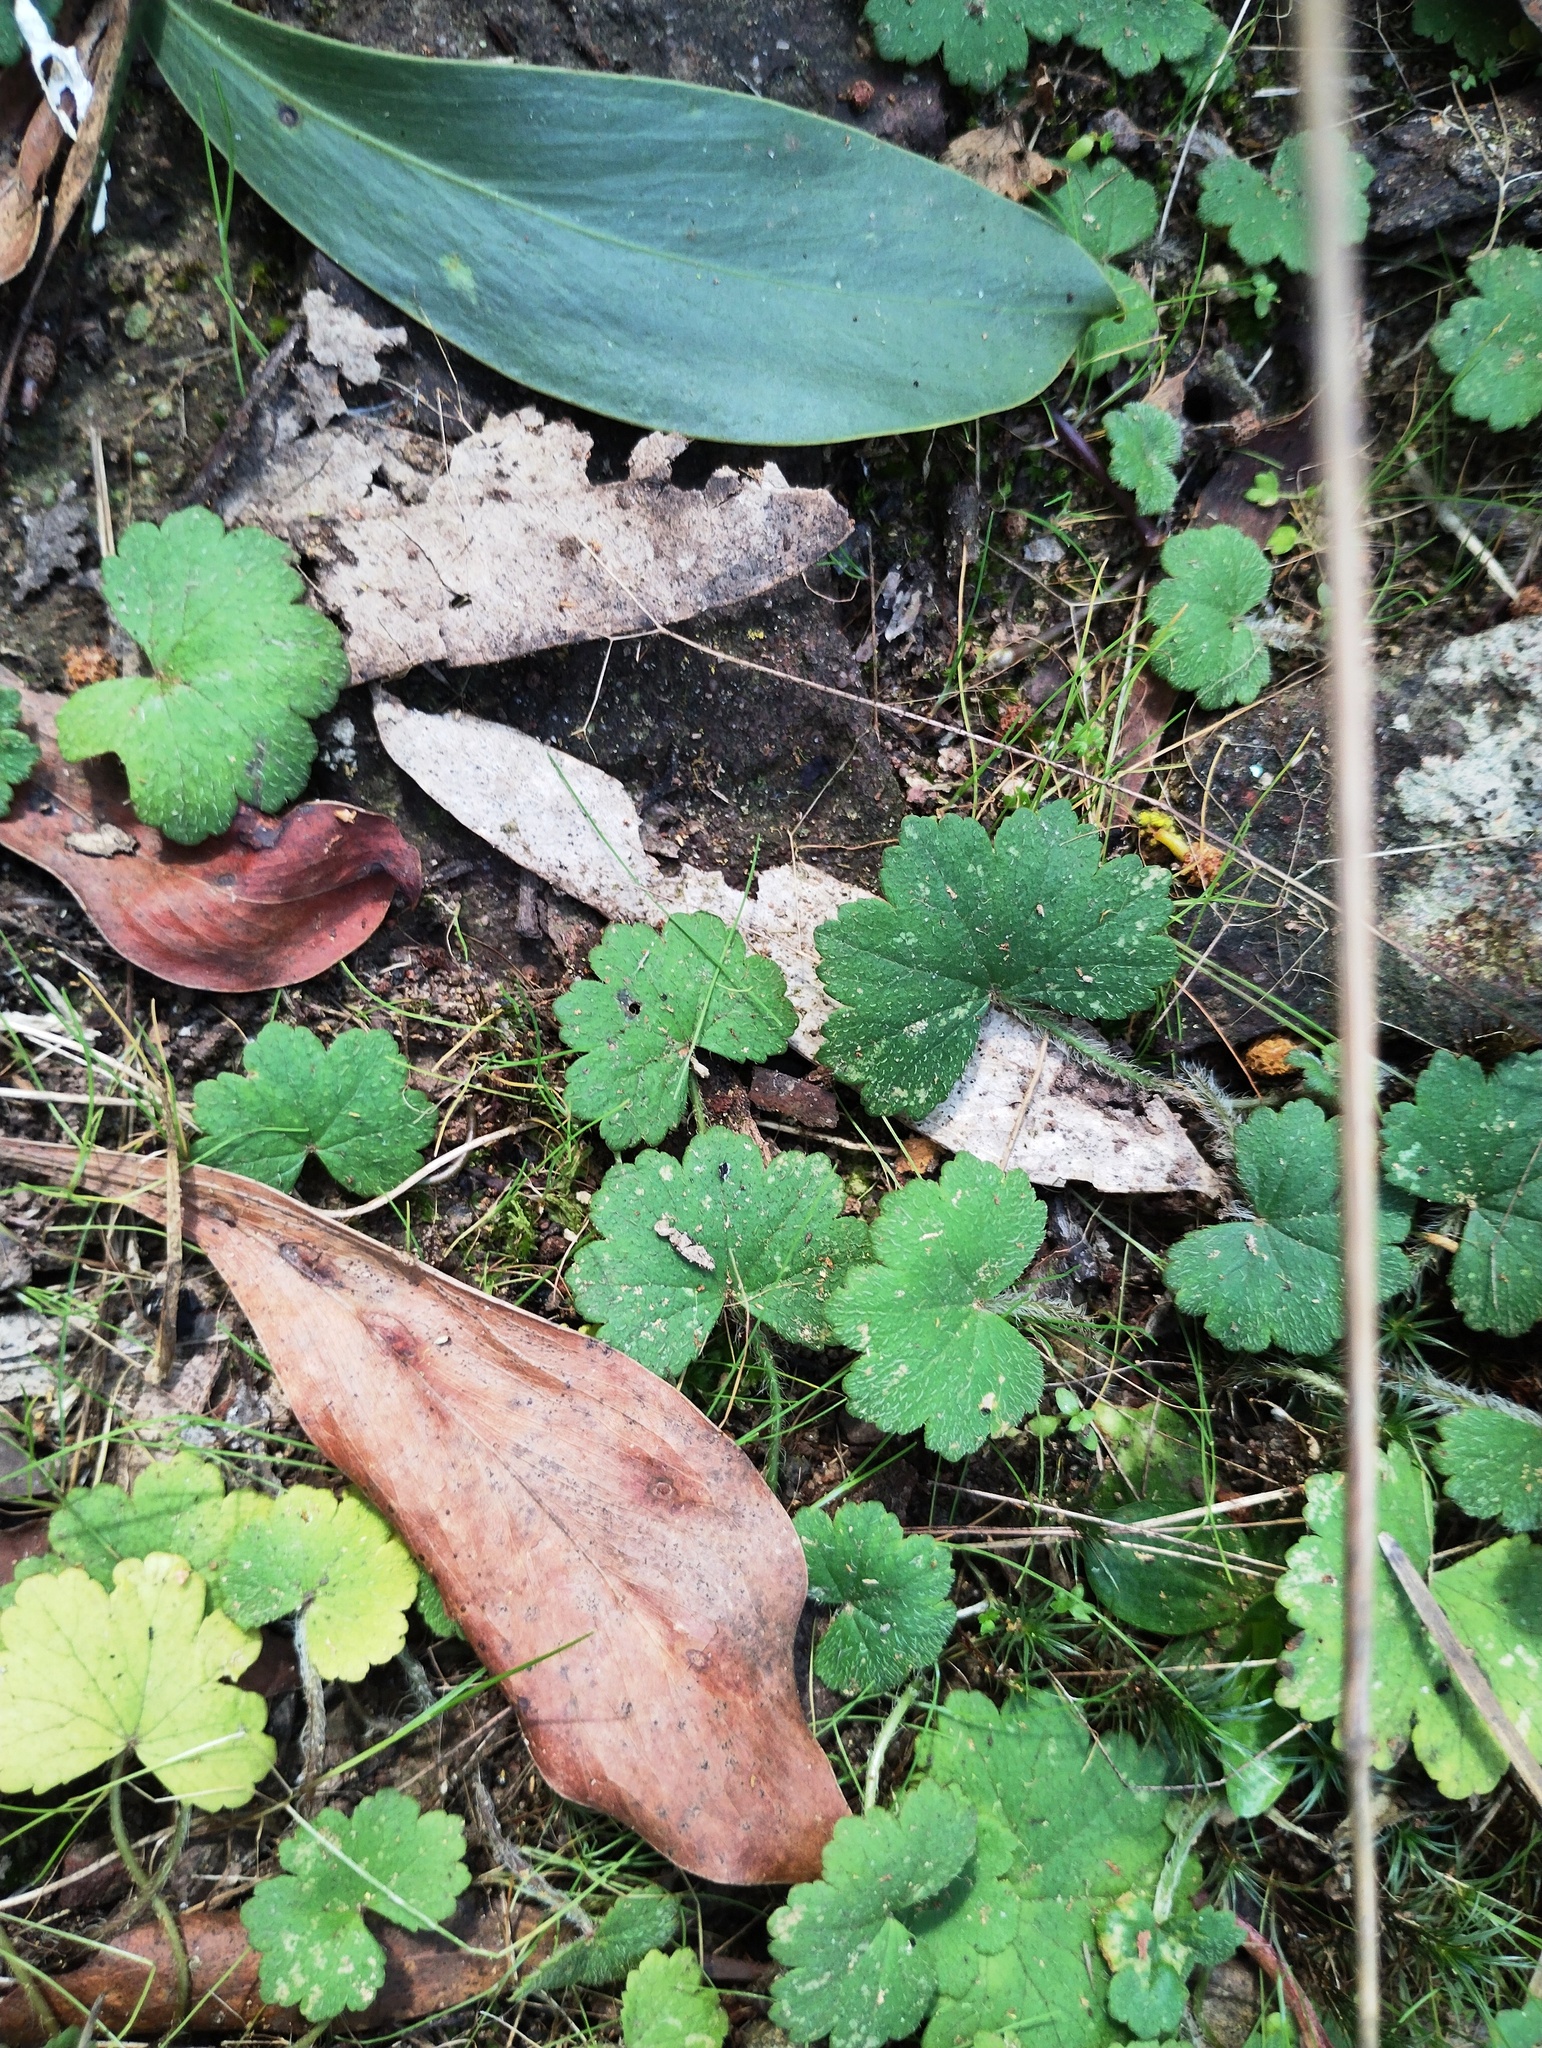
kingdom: Plantae
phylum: Tracheophyta
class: Magnoliopsida
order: Apiales
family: Araliaceae
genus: Hydrocotyle
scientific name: Hydrocotyle laxiflora
